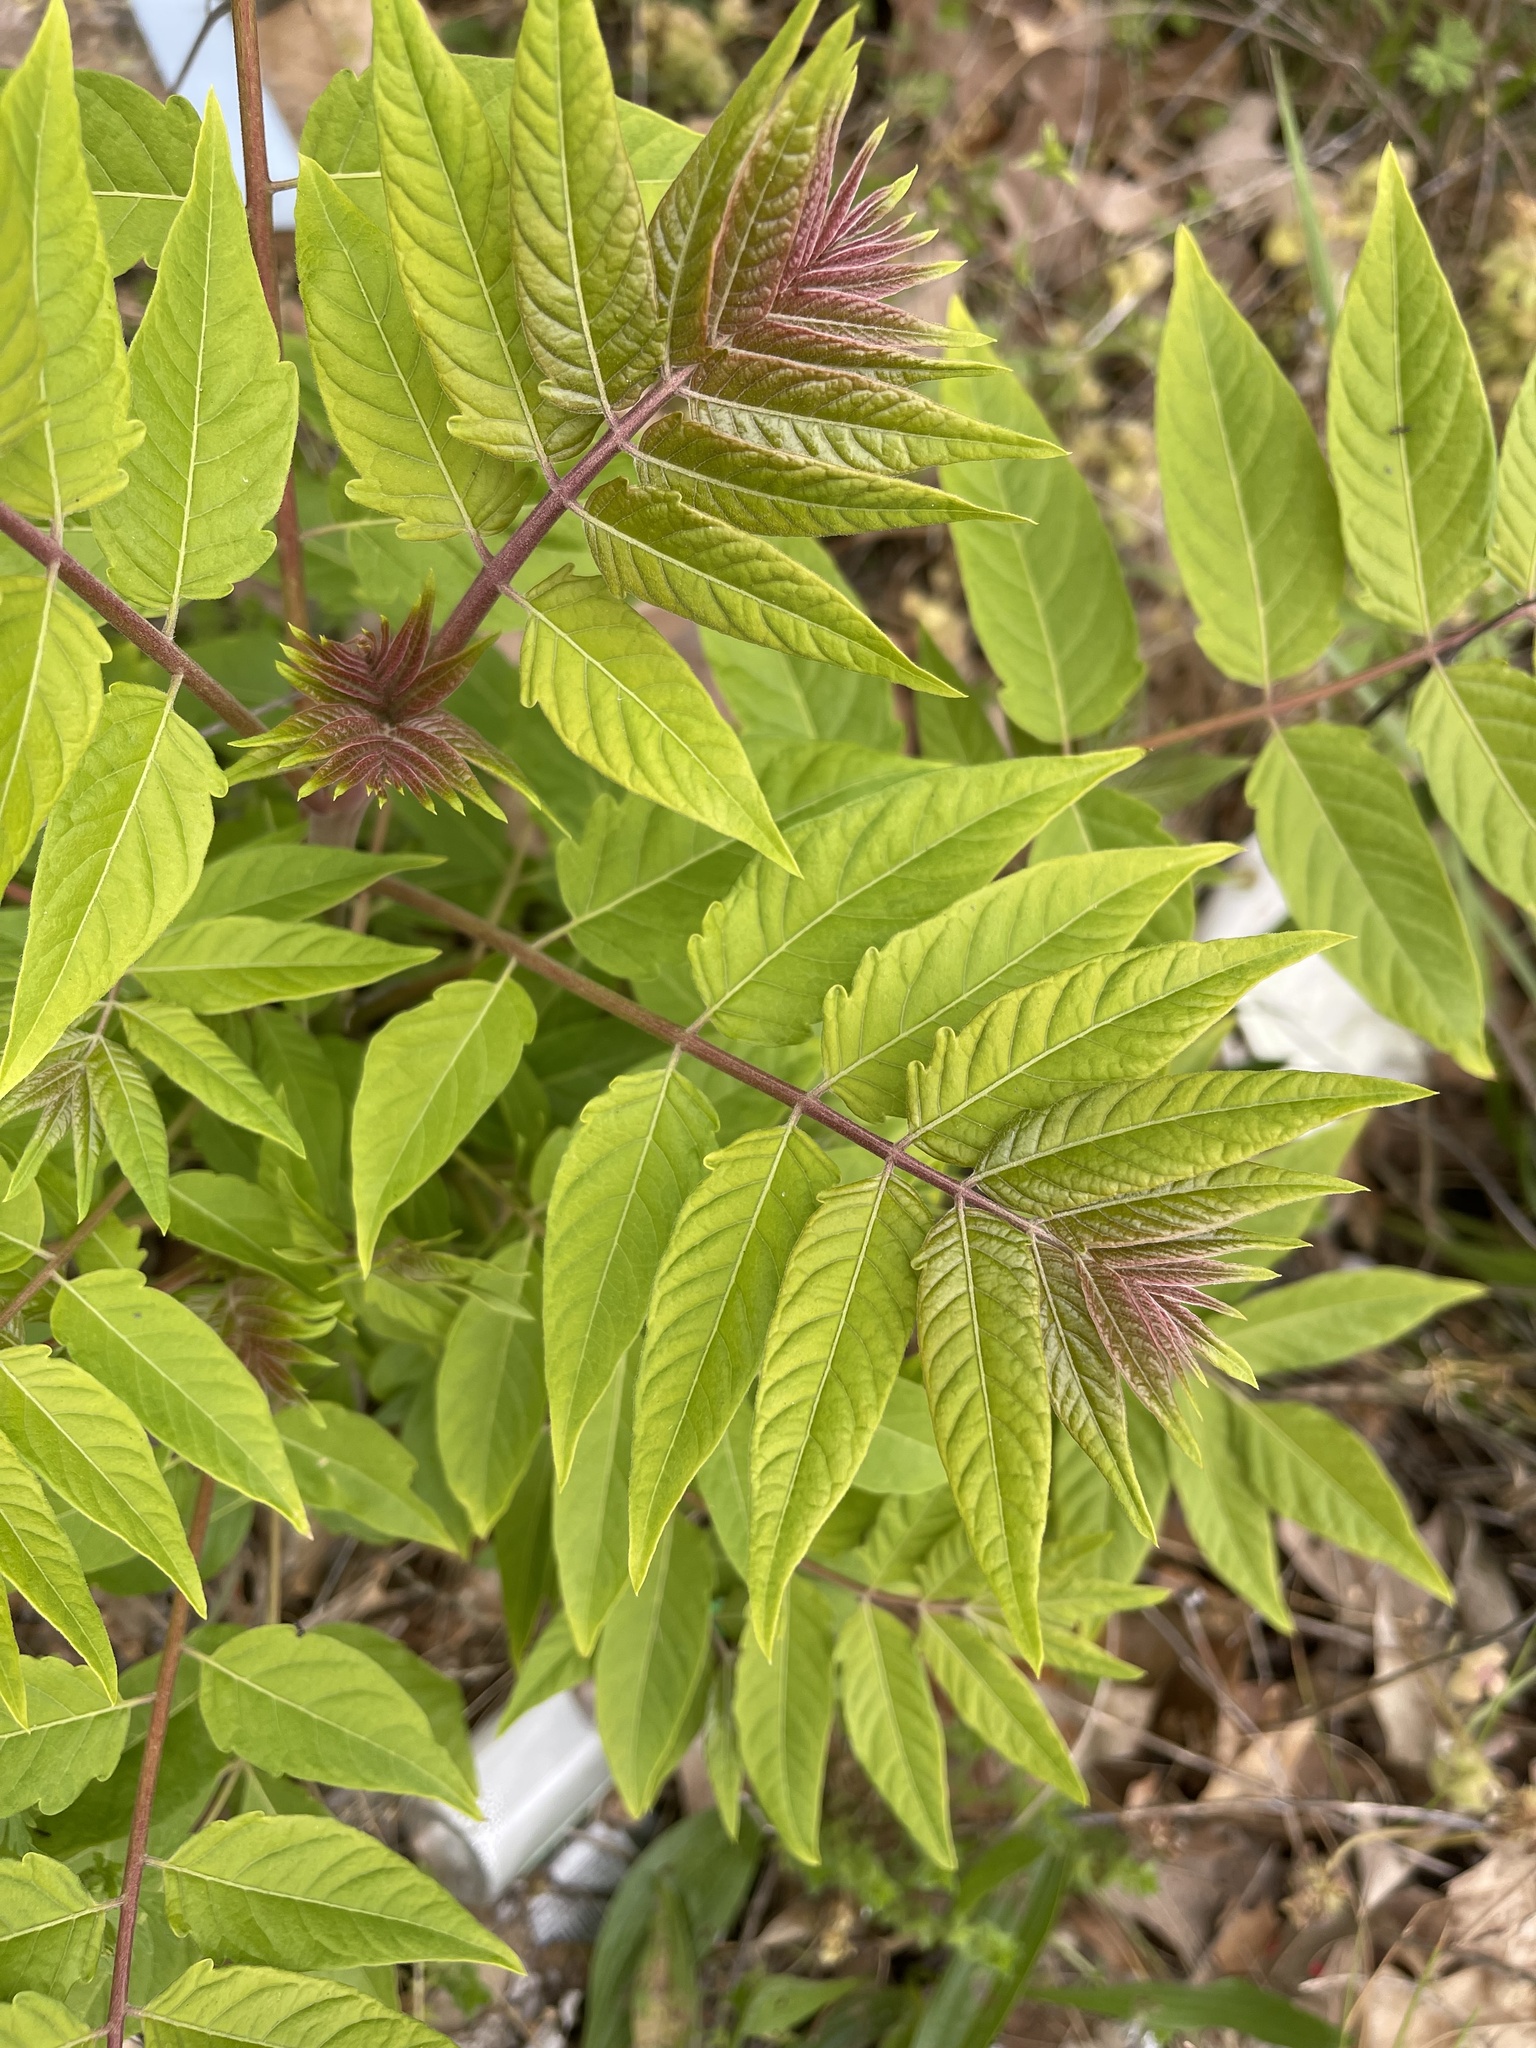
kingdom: Plantae
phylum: Tracheophyta
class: Magnoliopsida
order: Sapindales
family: Simaroubaceae
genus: Ailanthus
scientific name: Ailanthus altissima
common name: Tree-of-heaven
